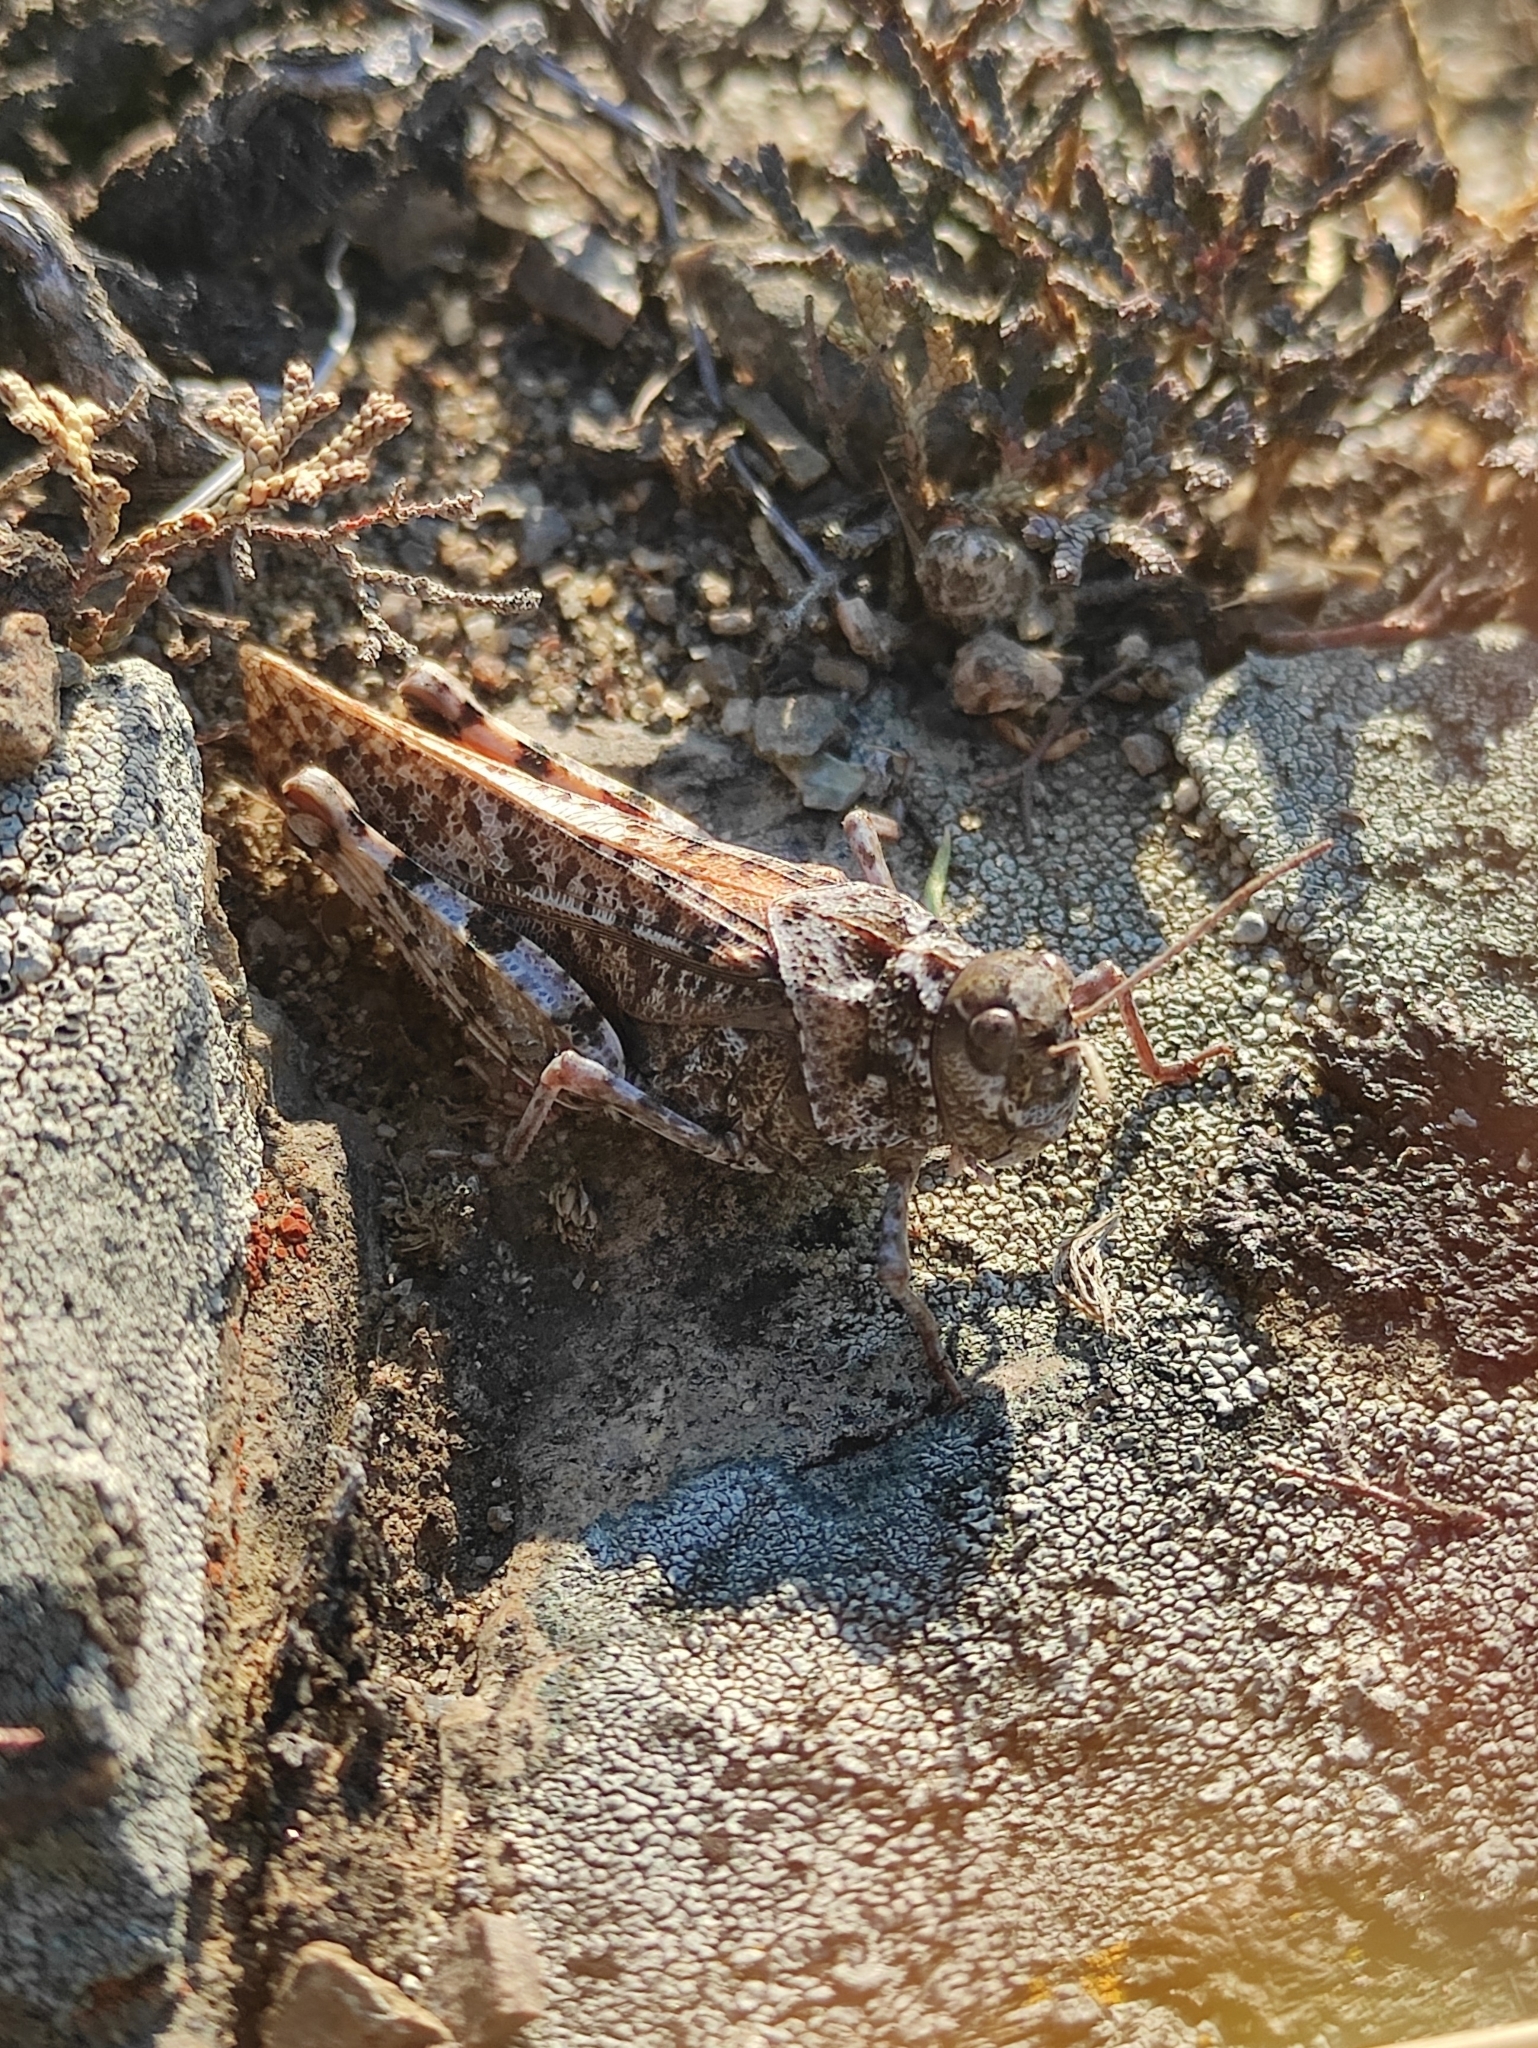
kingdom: Animalia
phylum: Arthropoda
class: Insecta
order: Orthoptera
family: Acrididae
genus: Angaracris
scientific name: Angaracris barabensis
